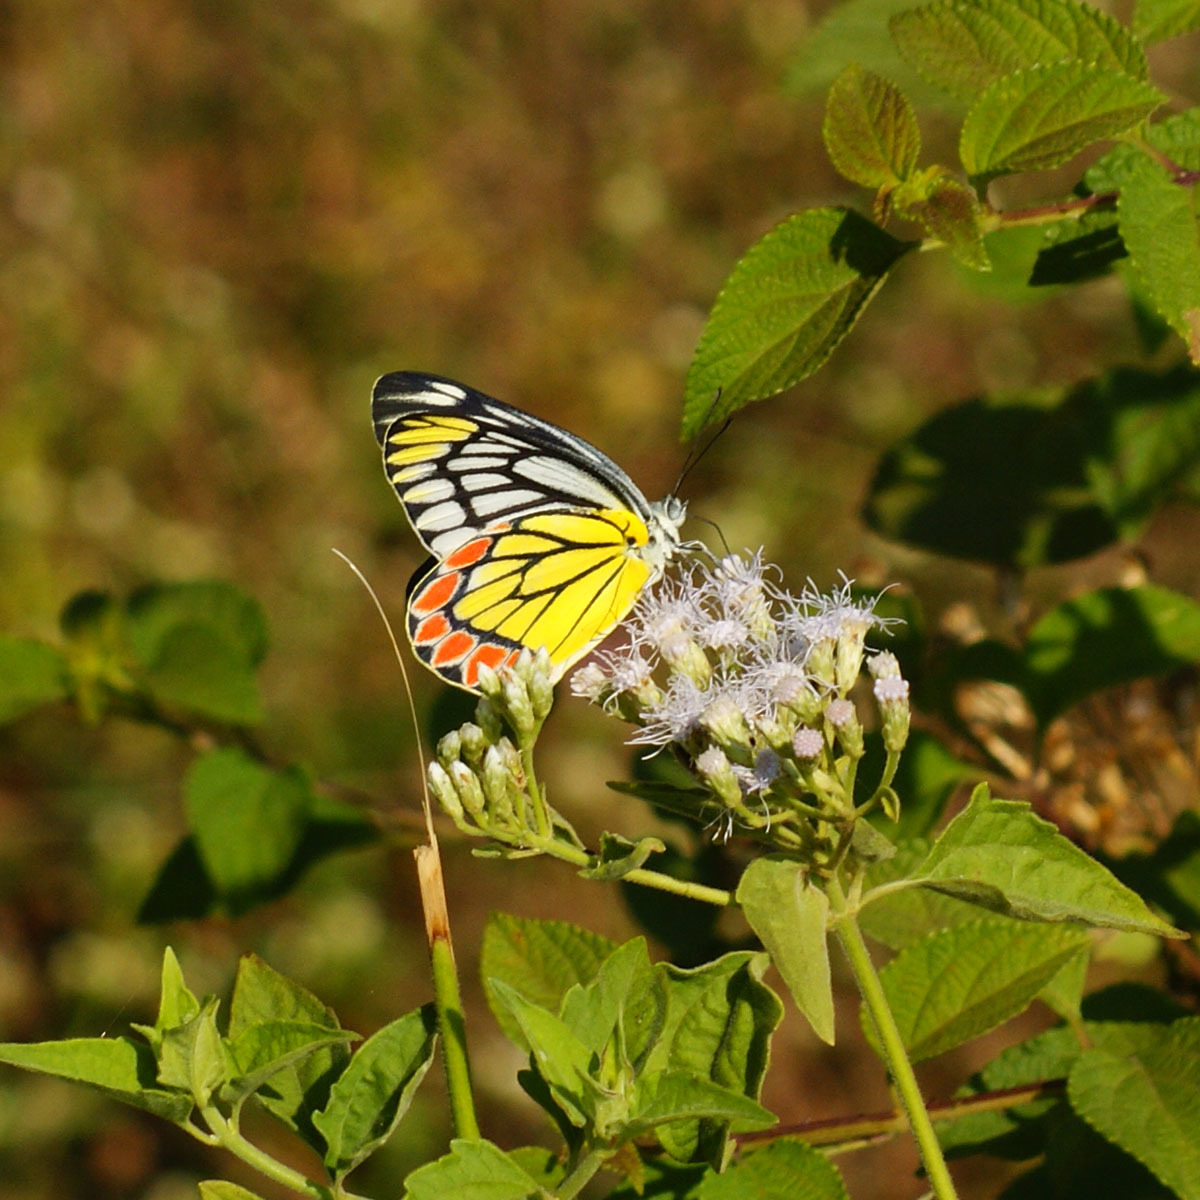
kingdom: Animalia
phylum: Arthropoda
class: Insecta
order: Lepidoptera
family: Pieridae
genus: Delias
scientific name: Delias eucharis
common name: Common jezebel
